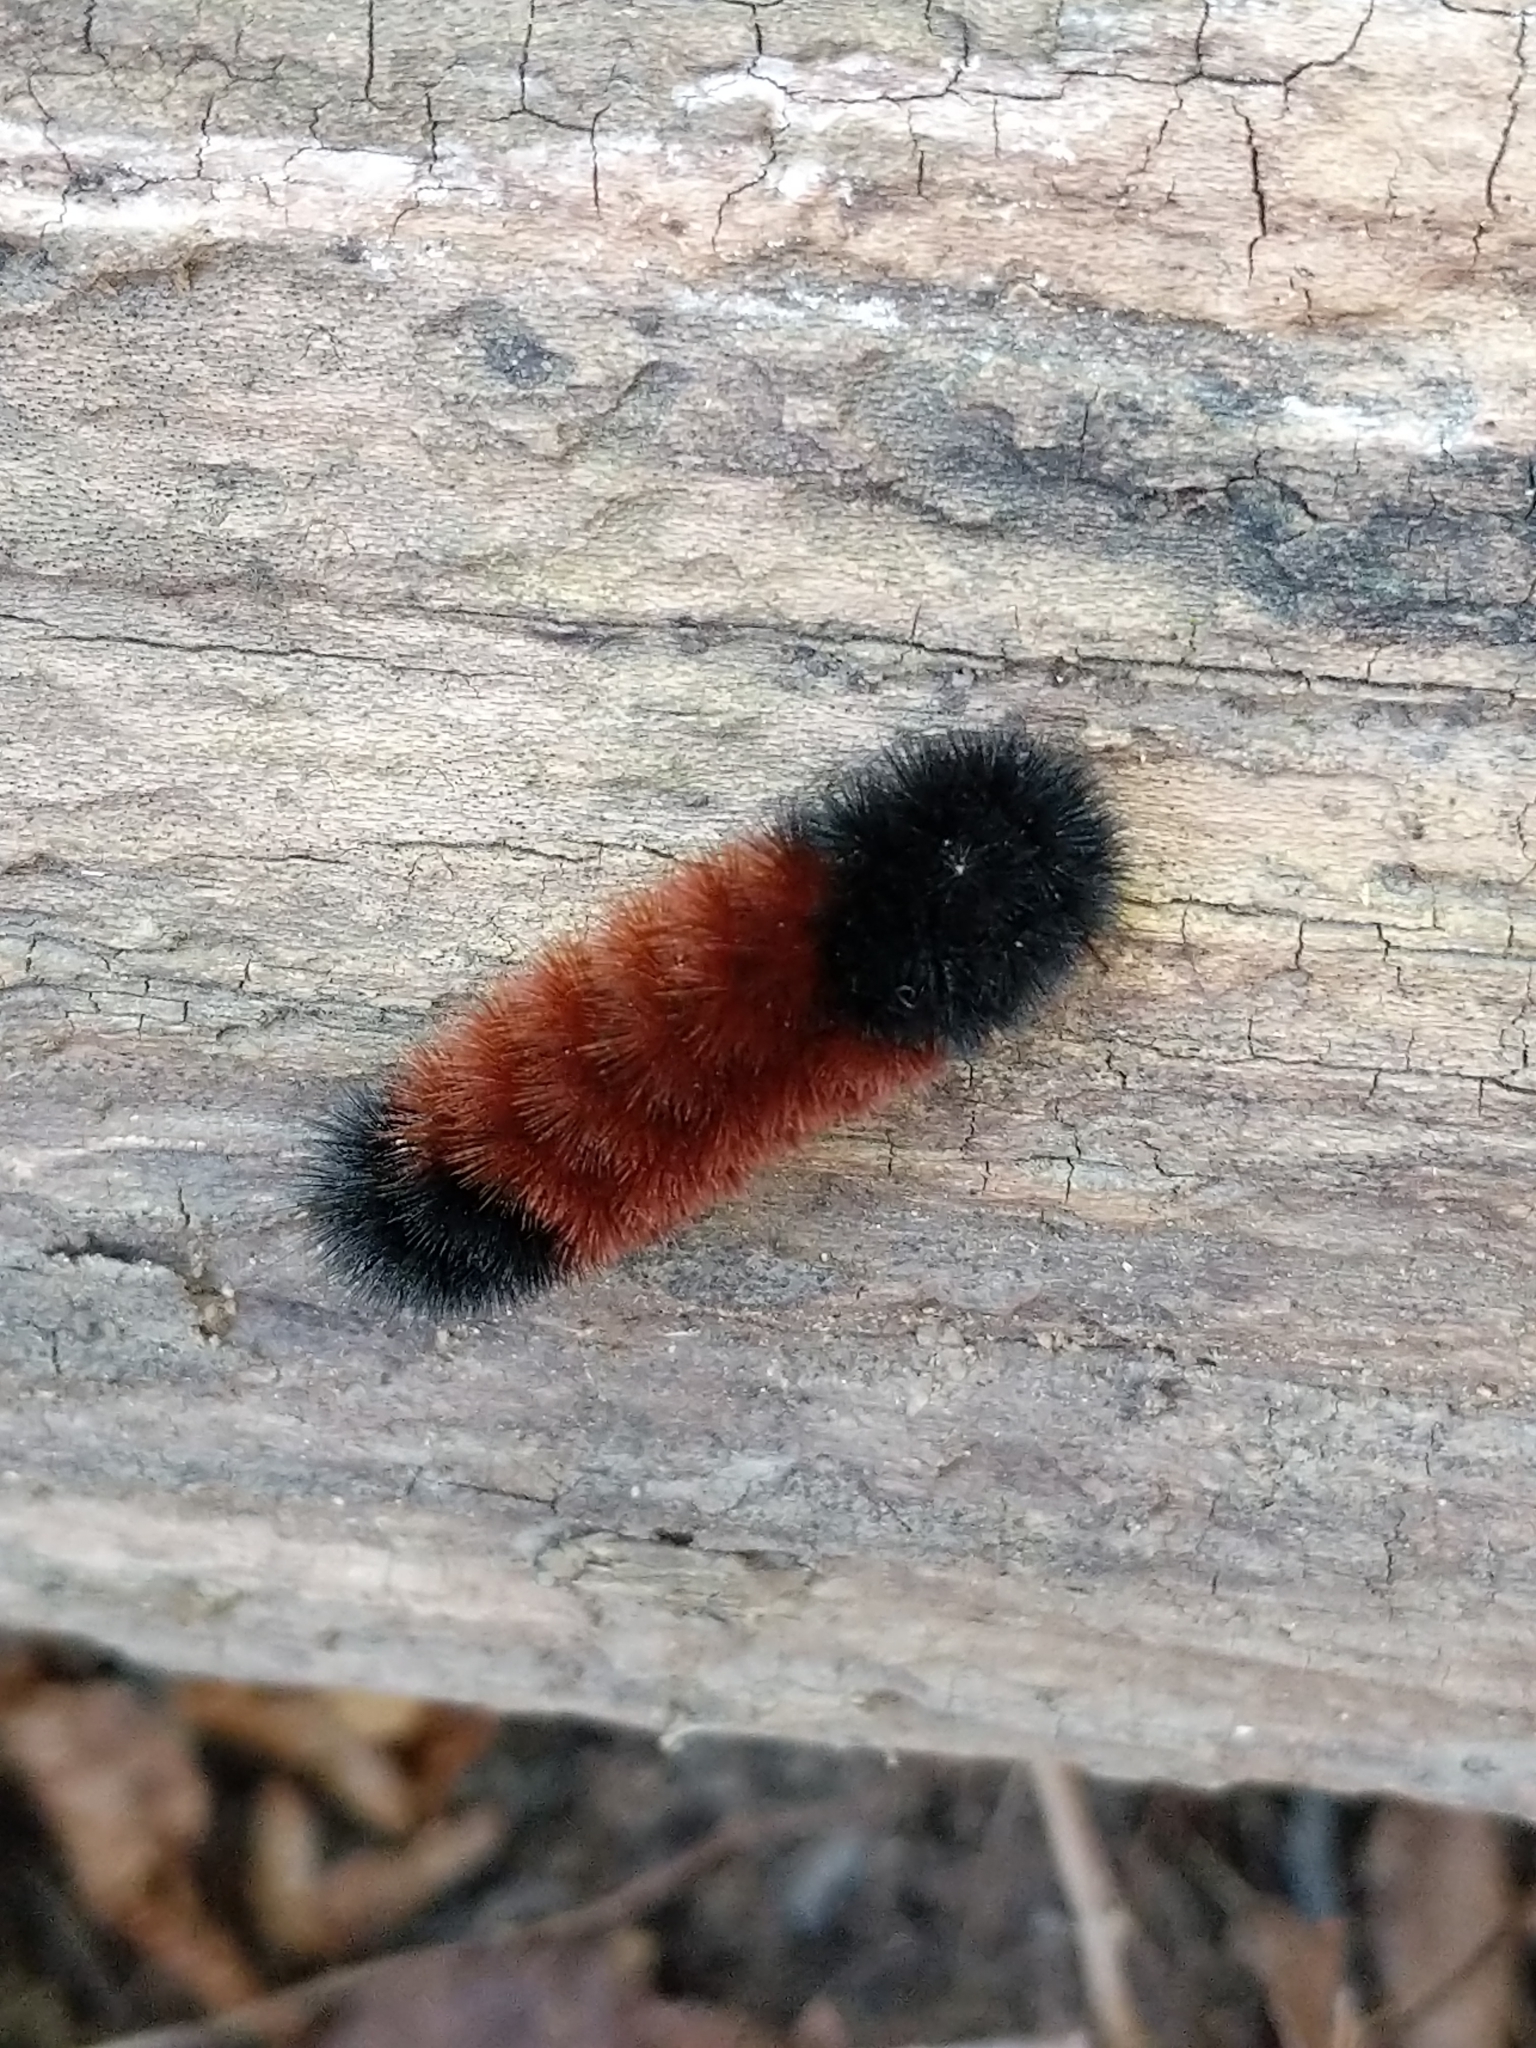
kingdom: Animalia
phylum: Arthropoda
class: Insecta
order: Lepidoptera
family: Erebidae
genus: Pyrrharctia
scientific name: Pyrrharctia isabella
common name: Isabella tiger moth
